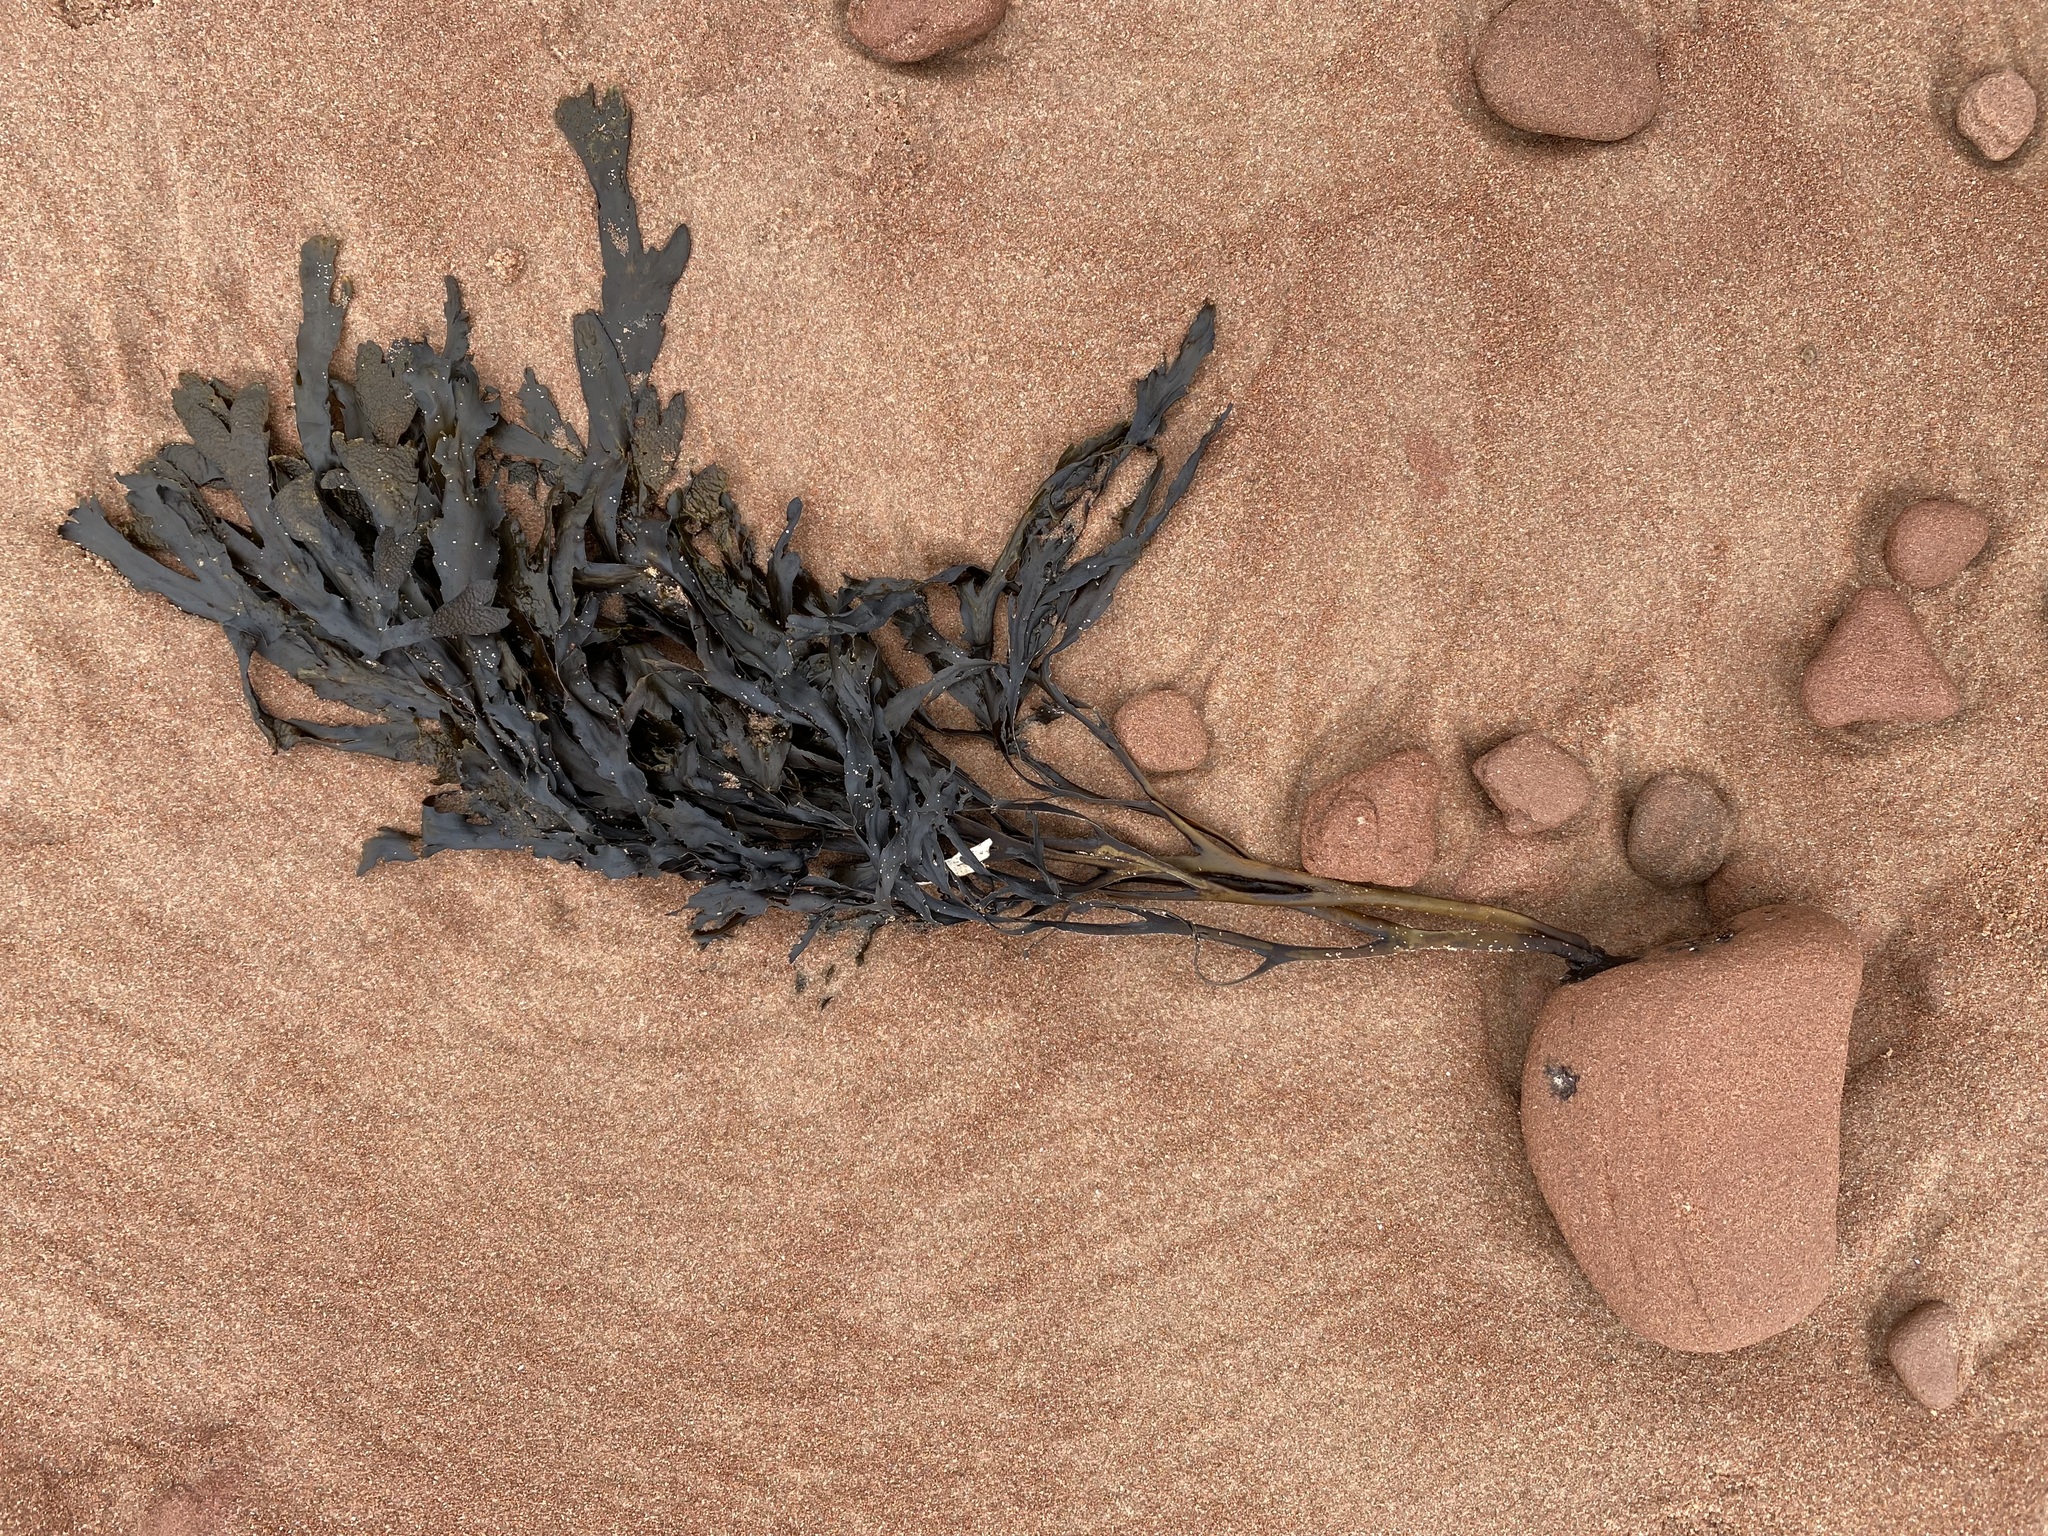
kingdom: Chromista
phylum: Ochrophyta
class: Phaeophyceae
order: Fucales
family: Fucaceae
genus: Fucus
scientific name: Fucus serratus
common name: Toothed wrack
